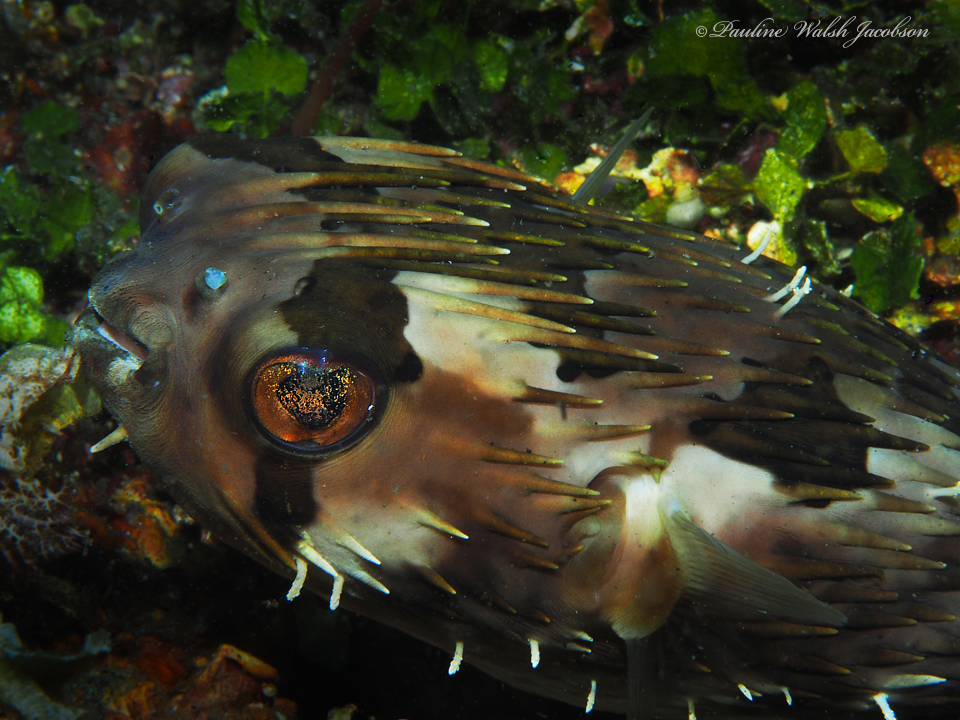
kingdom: Animalia
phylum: Chordata
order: Tetraodontiformes
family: Diodontidae
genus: Diodon
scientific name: Diodon holocanthus
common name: Balloonfish
